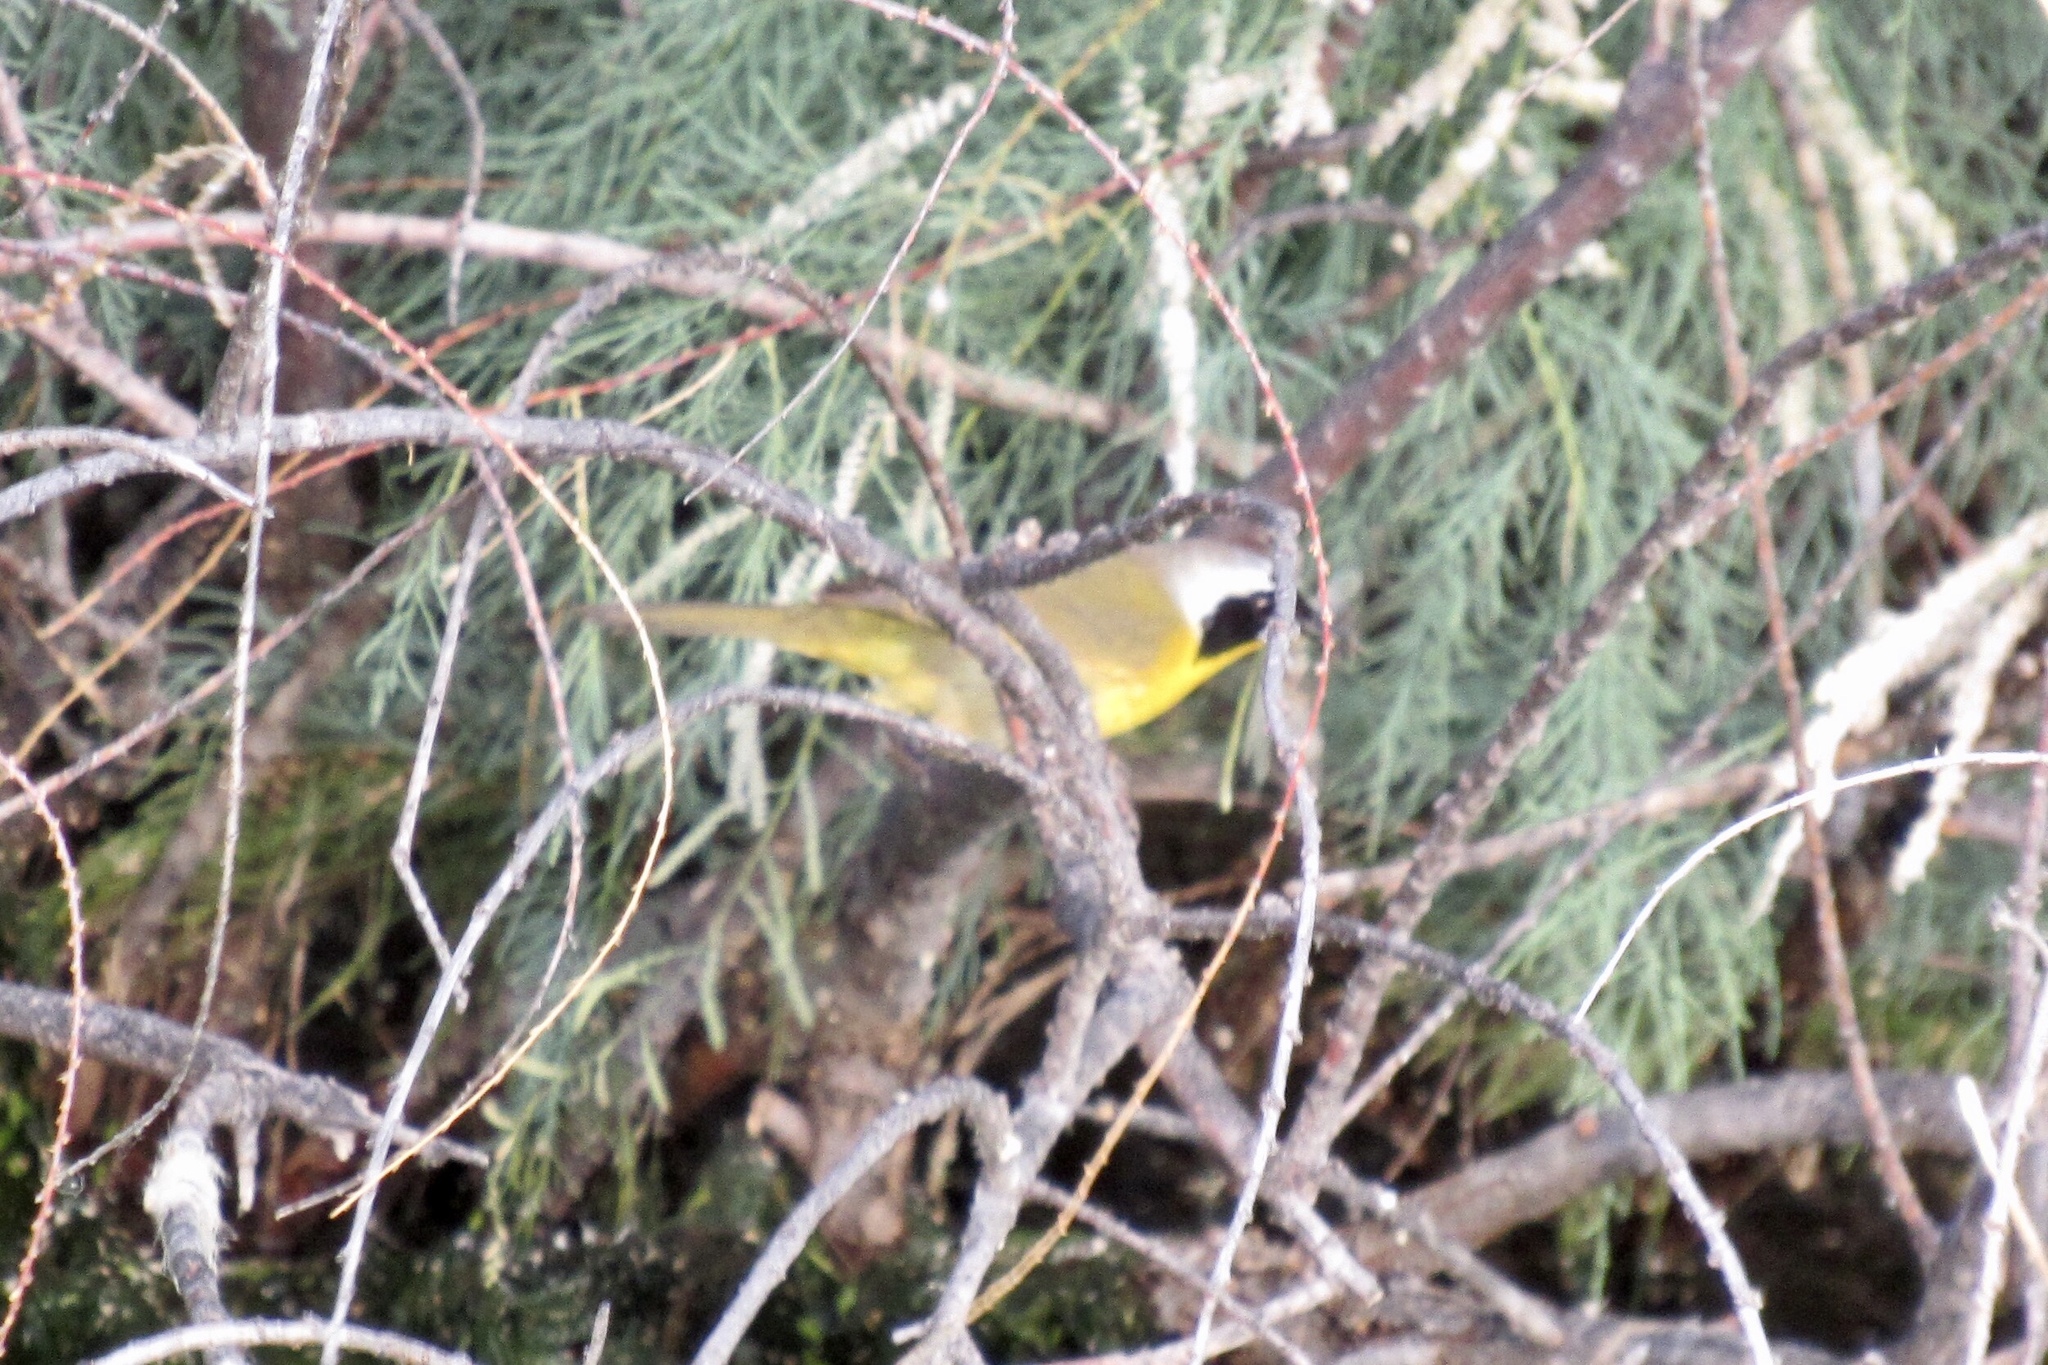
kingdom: Animalia
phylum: Chordata
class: Aves
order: Passeriformes
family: Parulidae
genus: Geothlypis
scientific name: Geothlypis trichas
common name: Common yellowthroat
